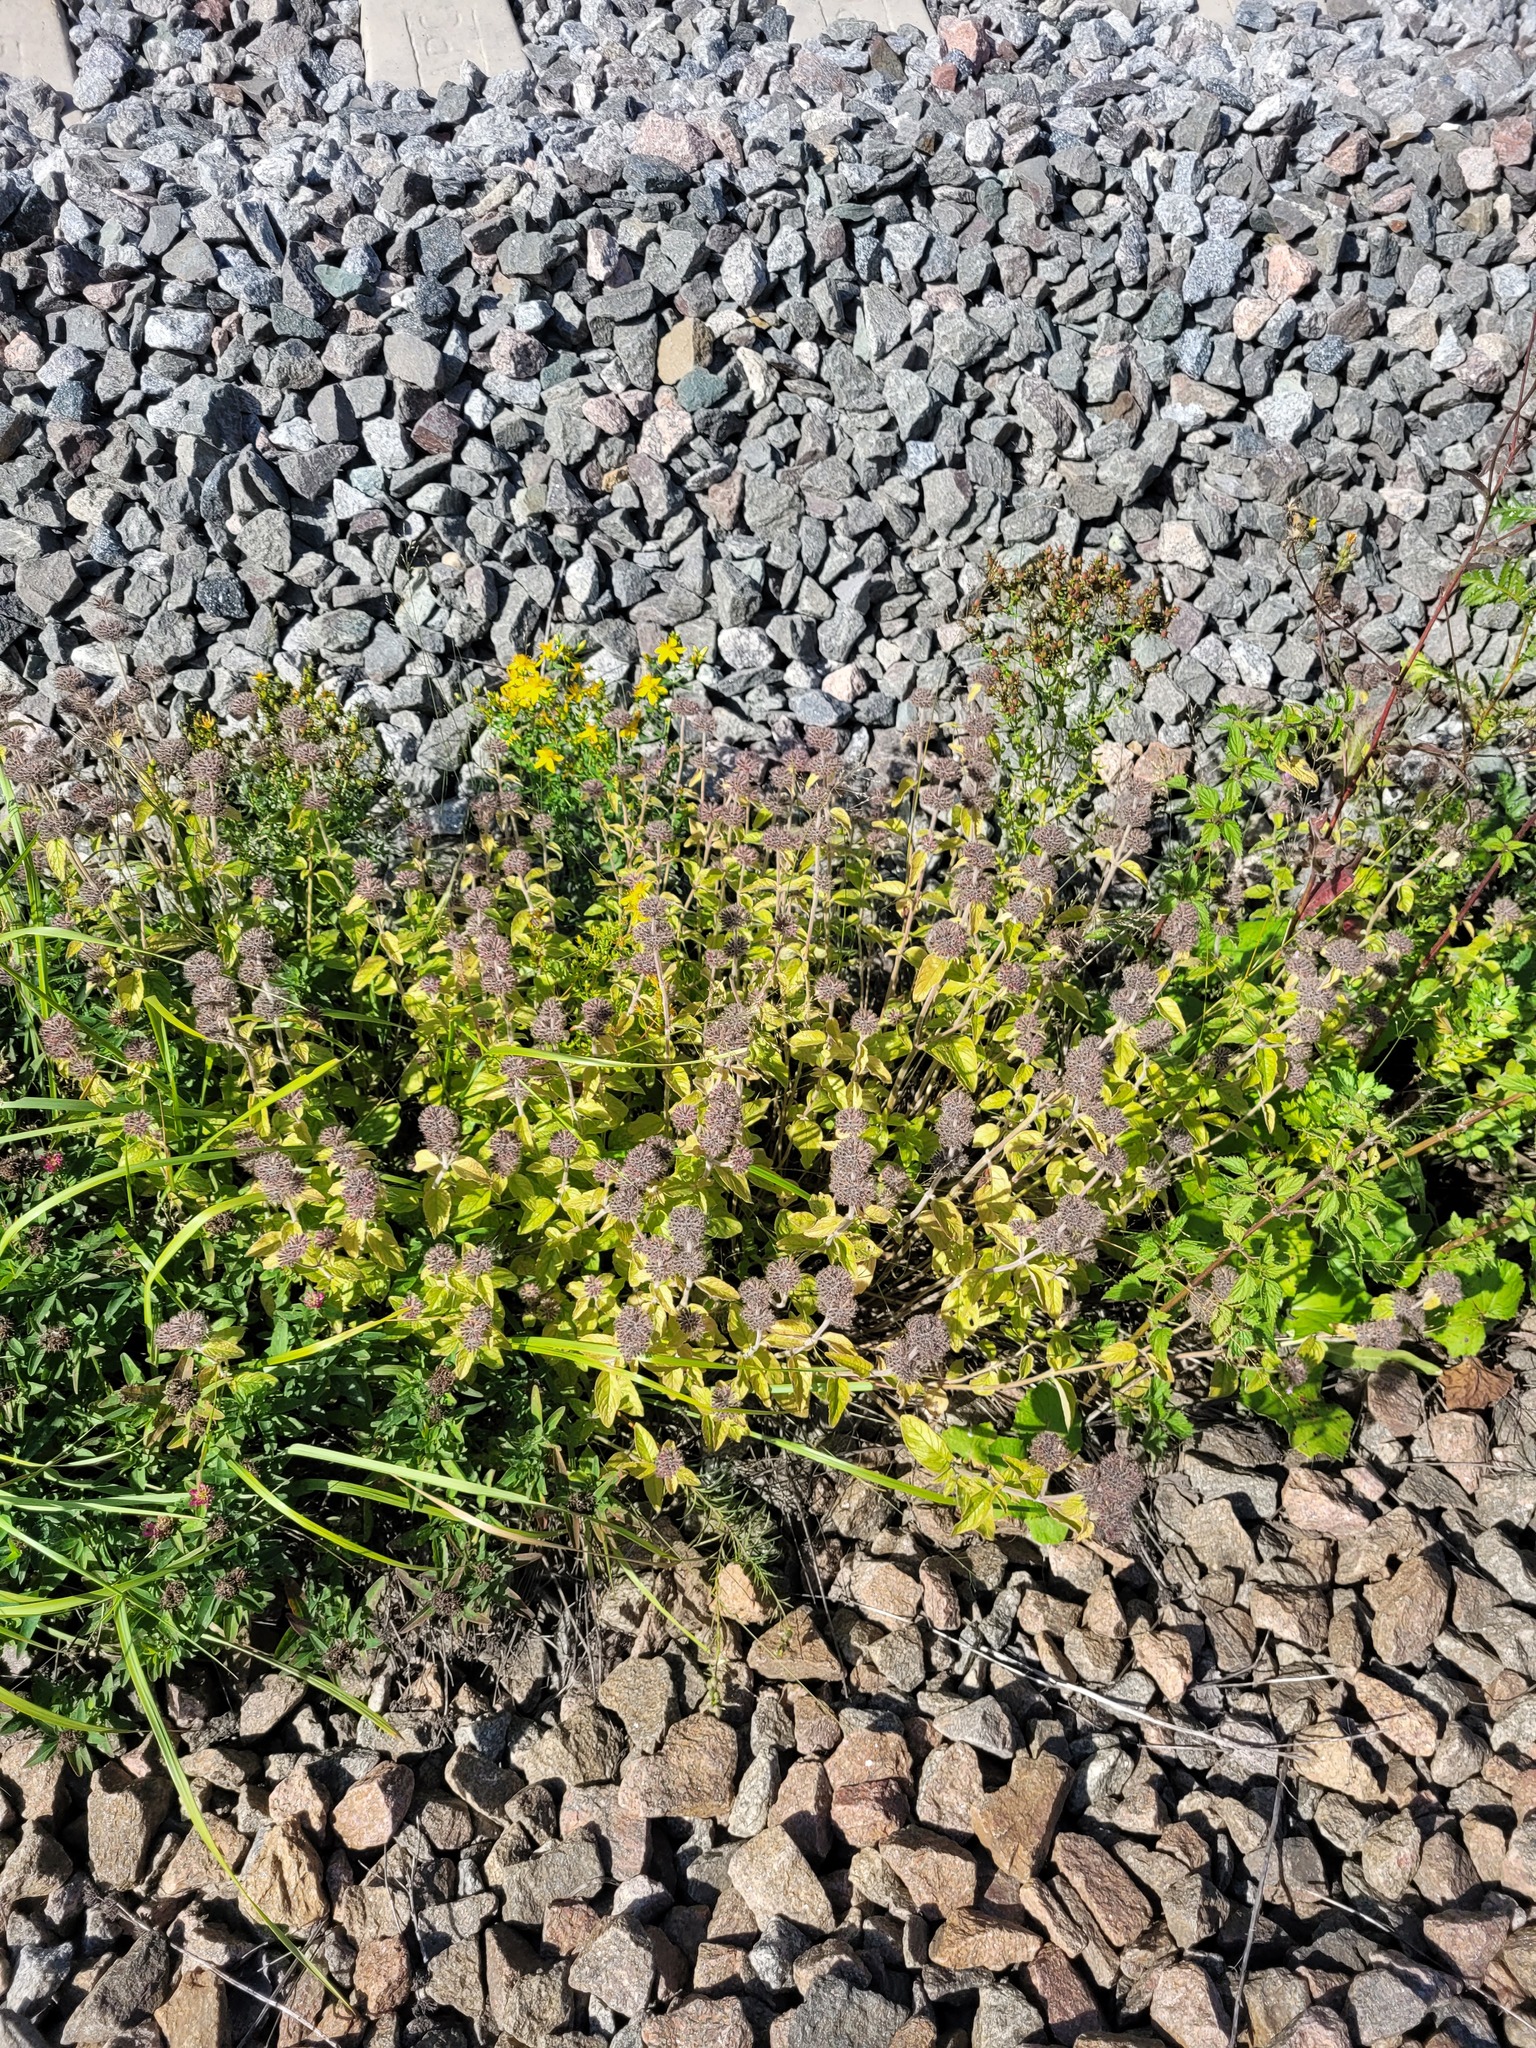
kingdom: Plantae
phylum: Tracheophyta
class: Magnoliopsida
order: Lamiales
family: Lamiaceae
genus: Clinopodium
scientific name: Clinopodium vulgare
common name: Wild basil
